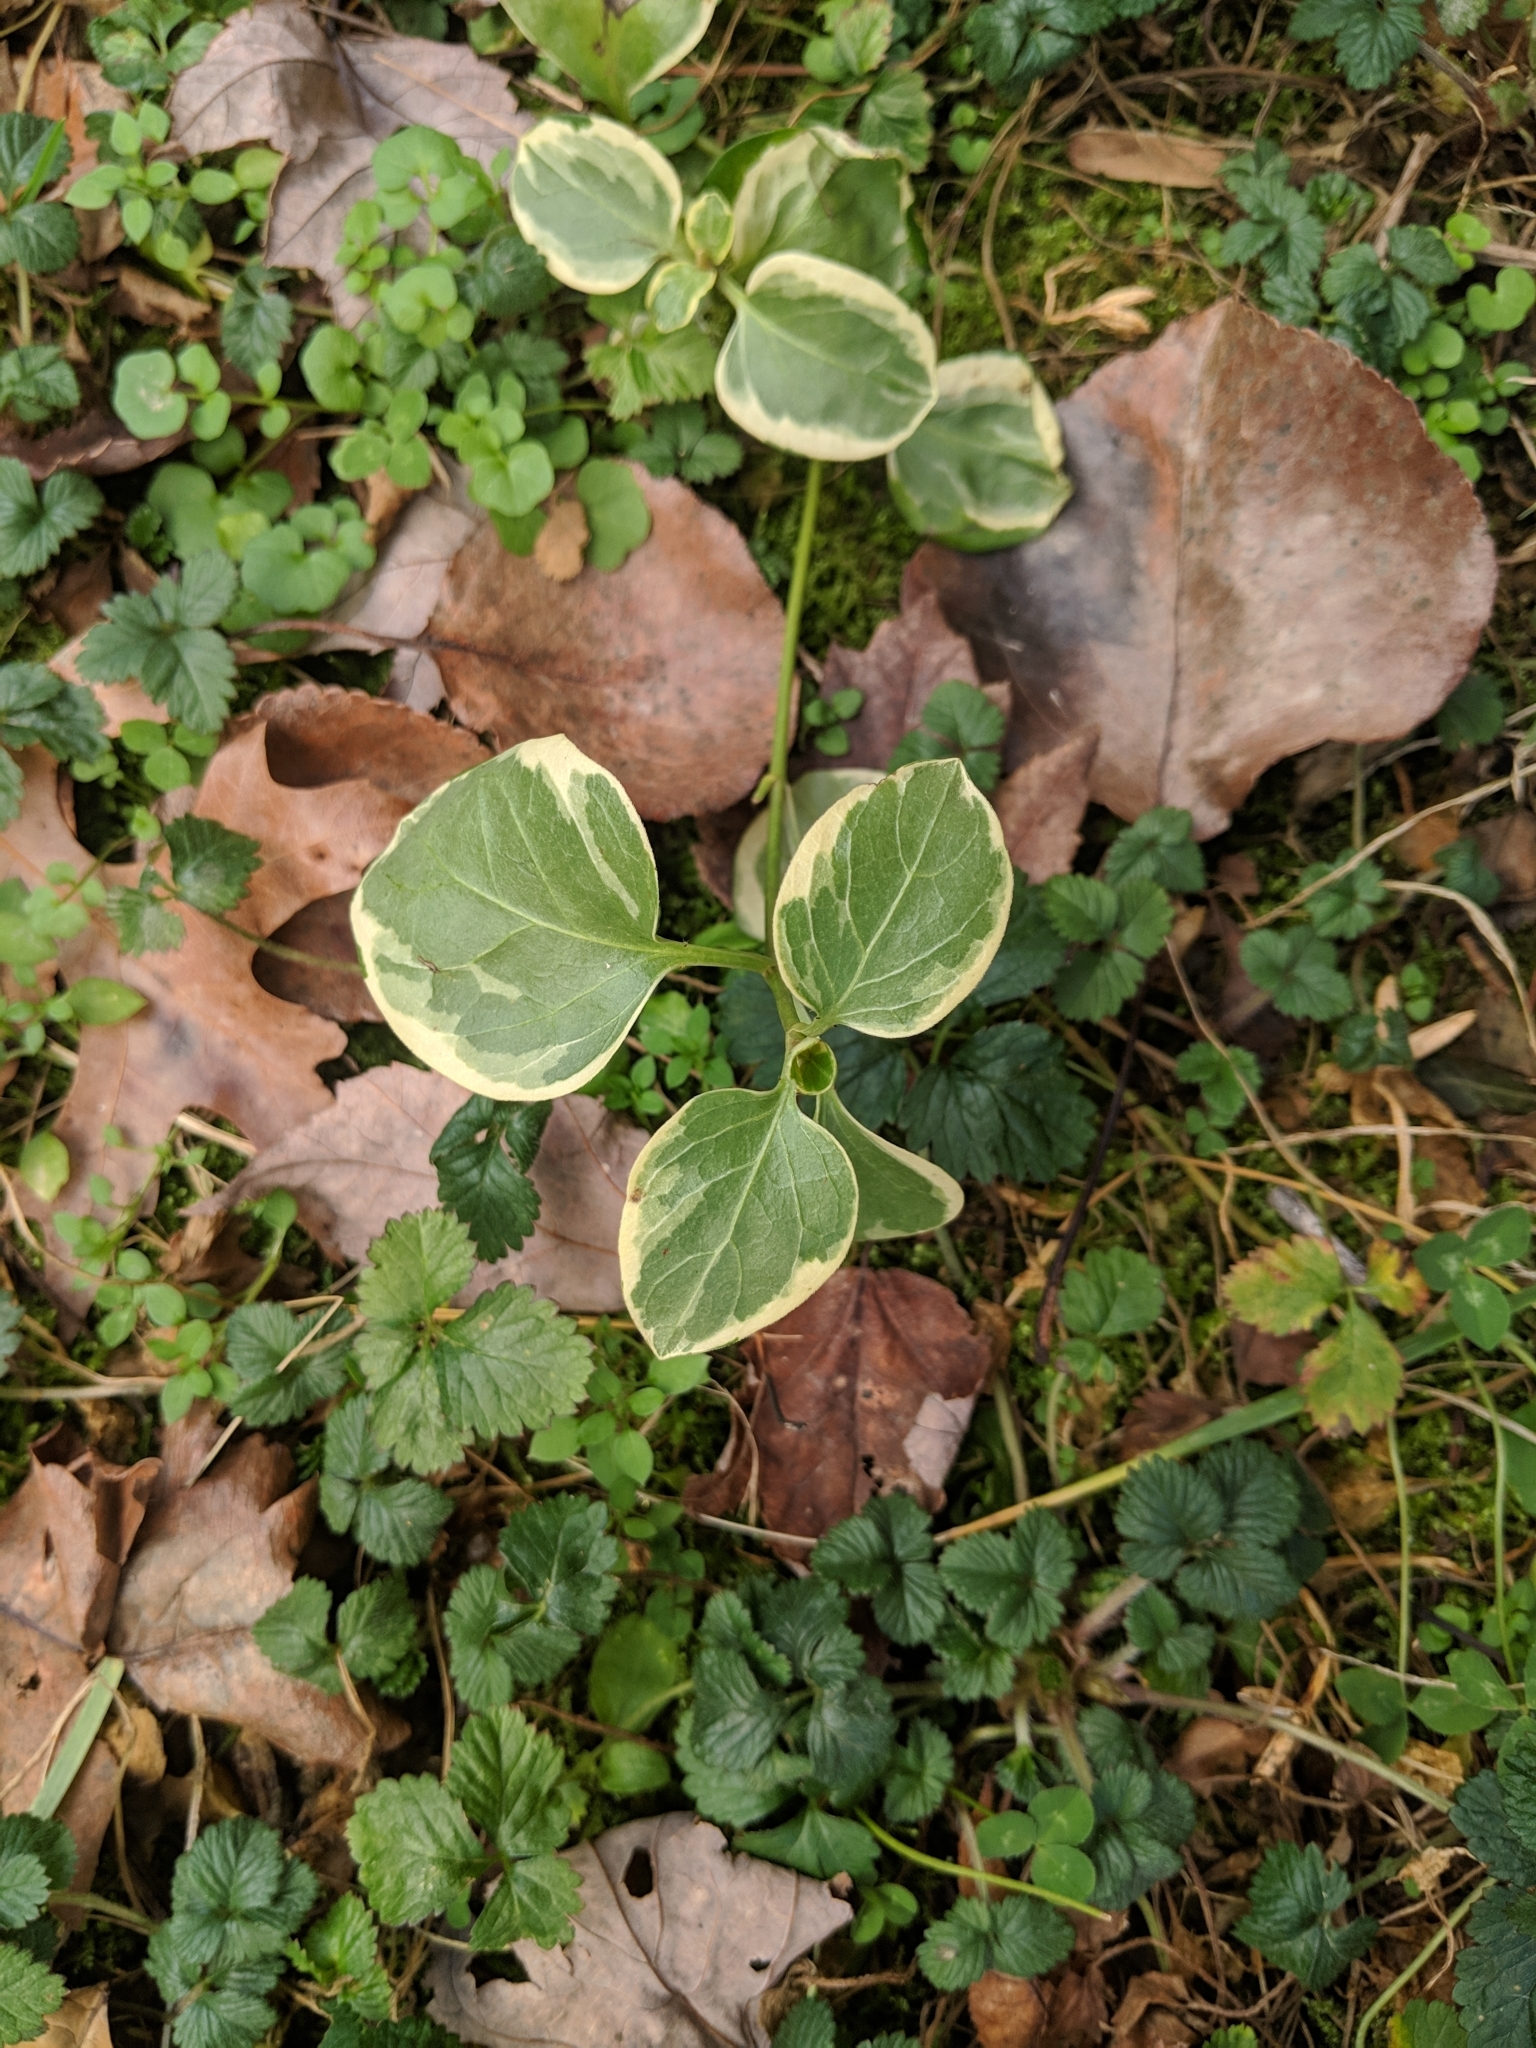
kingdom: Plantae
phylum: Tracheophyta
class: Magnoliopsida
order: Gentianales
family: Apocynaceae
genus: Vinca
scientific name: Vinca major
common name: Greater periwinkle
